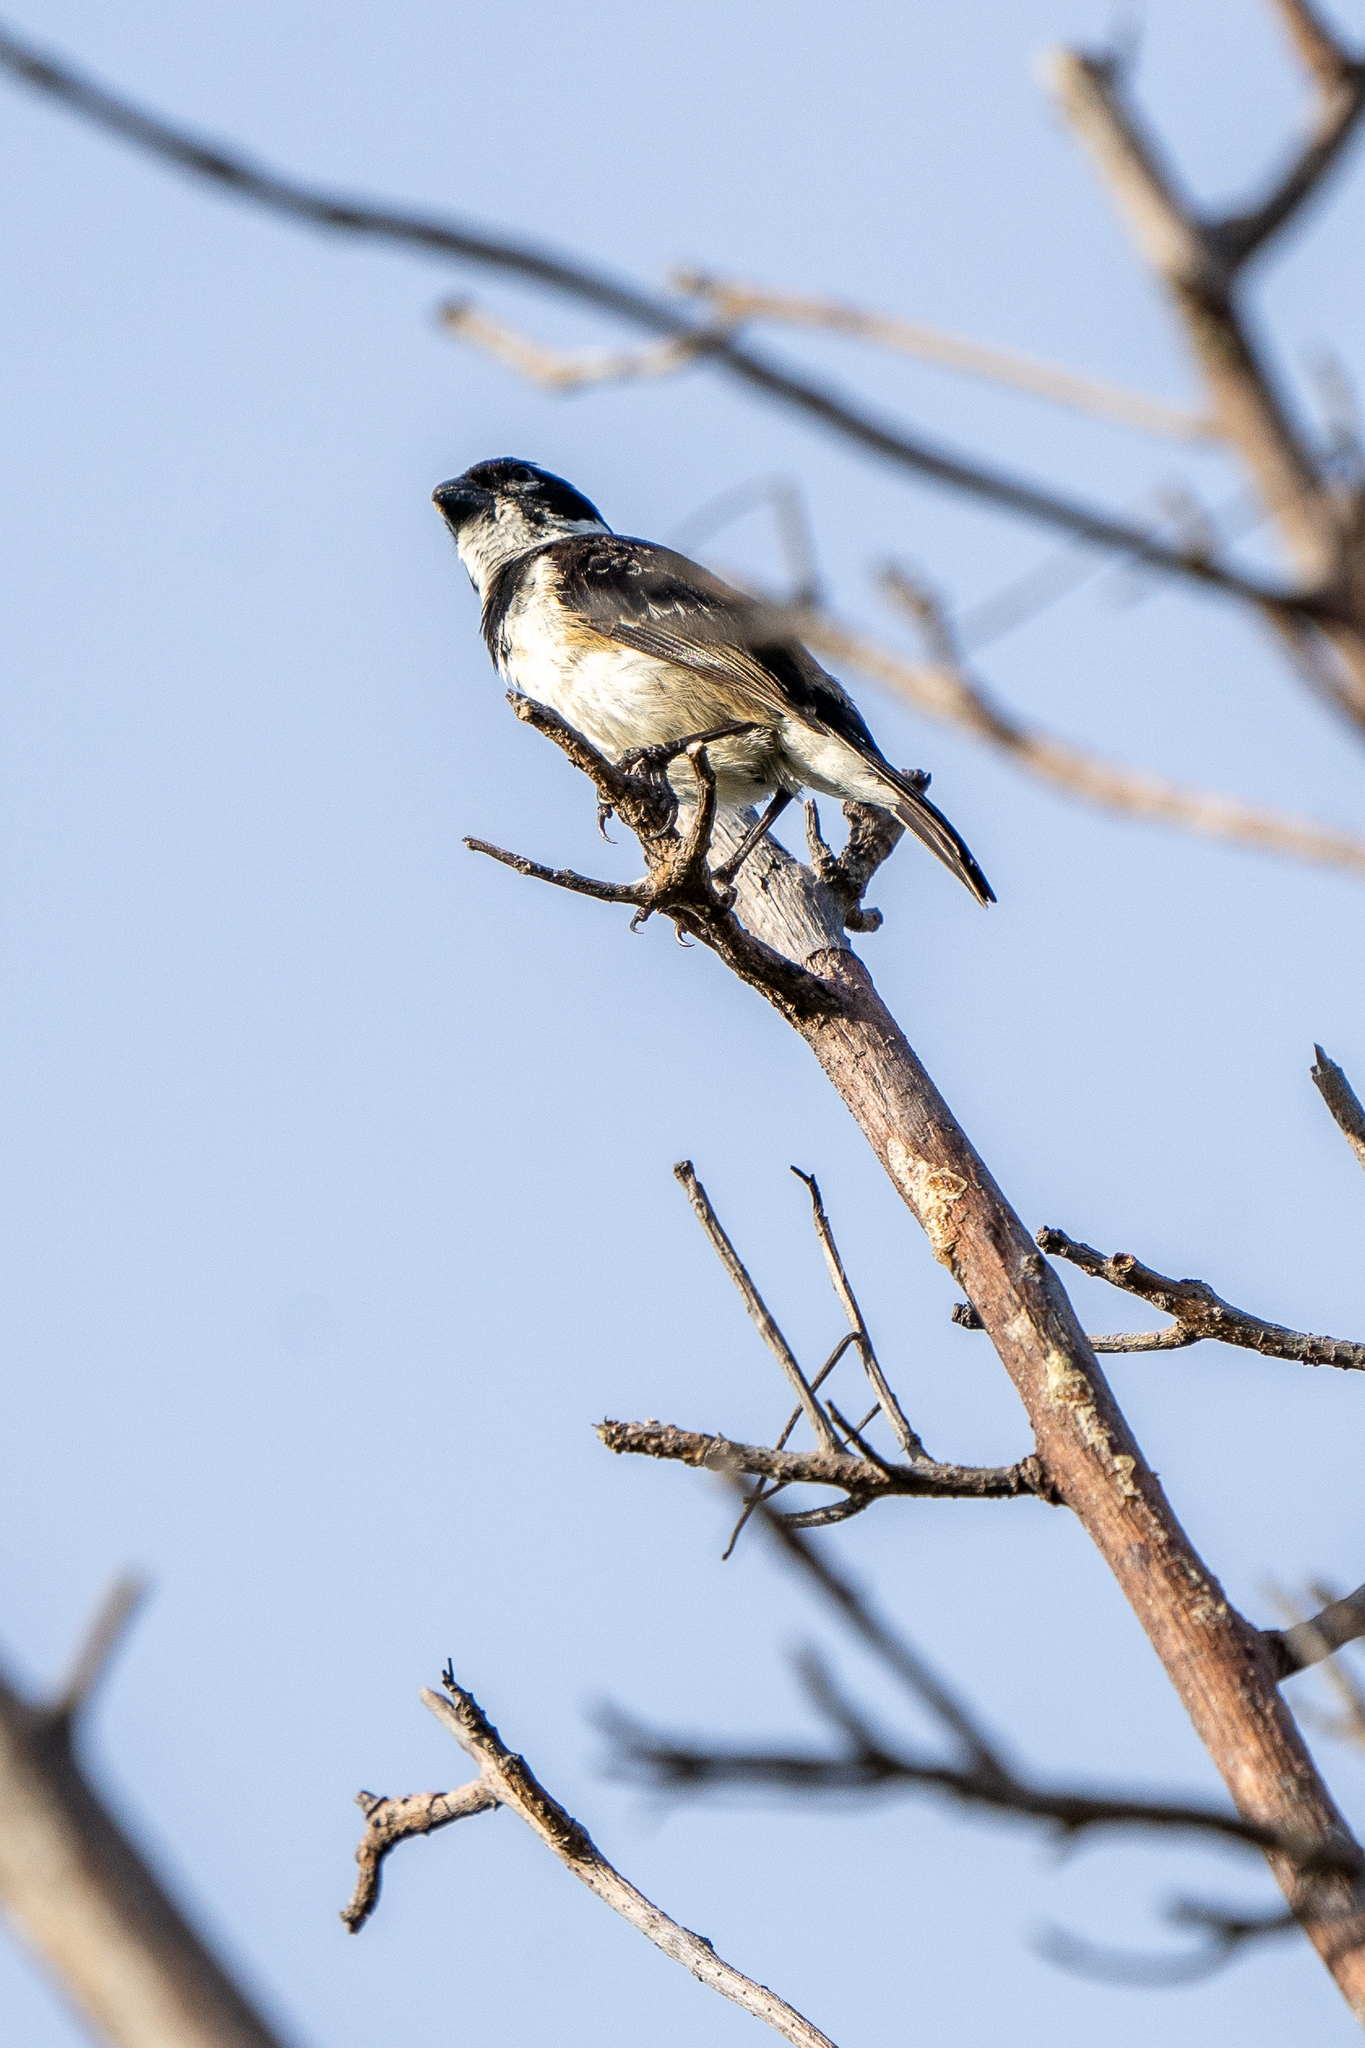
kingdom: Animalia
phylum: Chordata
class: Aves
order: Passeriformes
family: Thraupidae
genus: Sporophila
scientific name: Sporophila morelleti
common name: Morelet's seedeater
